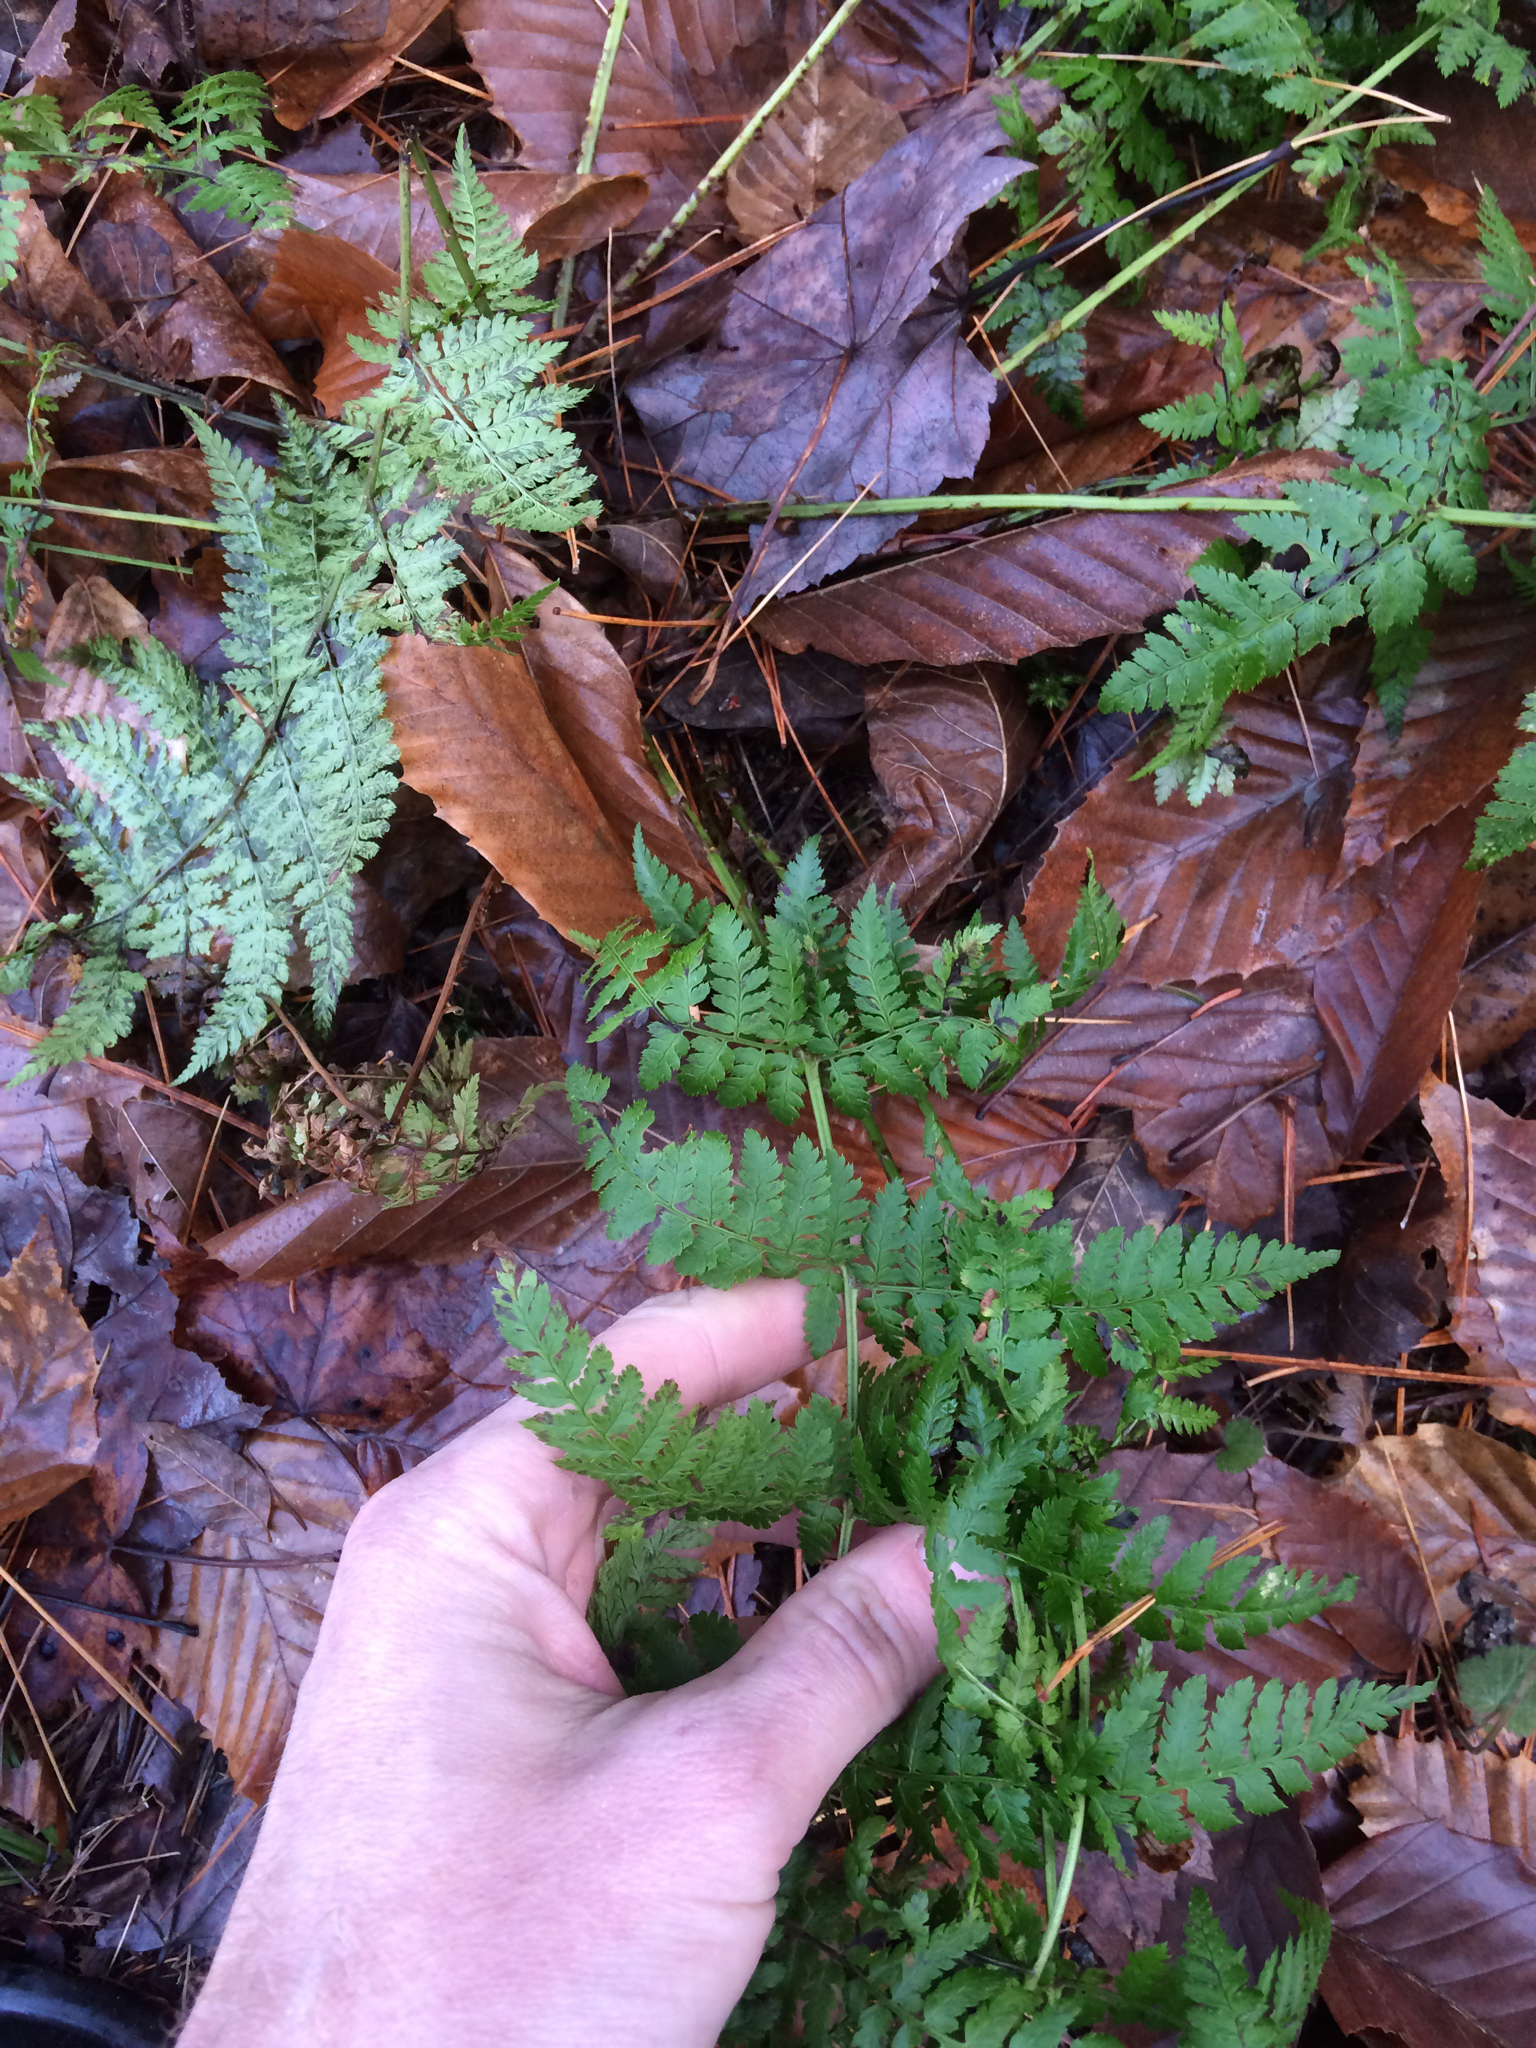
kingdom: Plantae
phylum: Tracheophyta
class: Polypodiopsida
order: Polypodiales
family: Dryopteridaceae
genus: Dryopteris
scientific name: Dryopteris intermedia
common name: Evergreen wood fern
